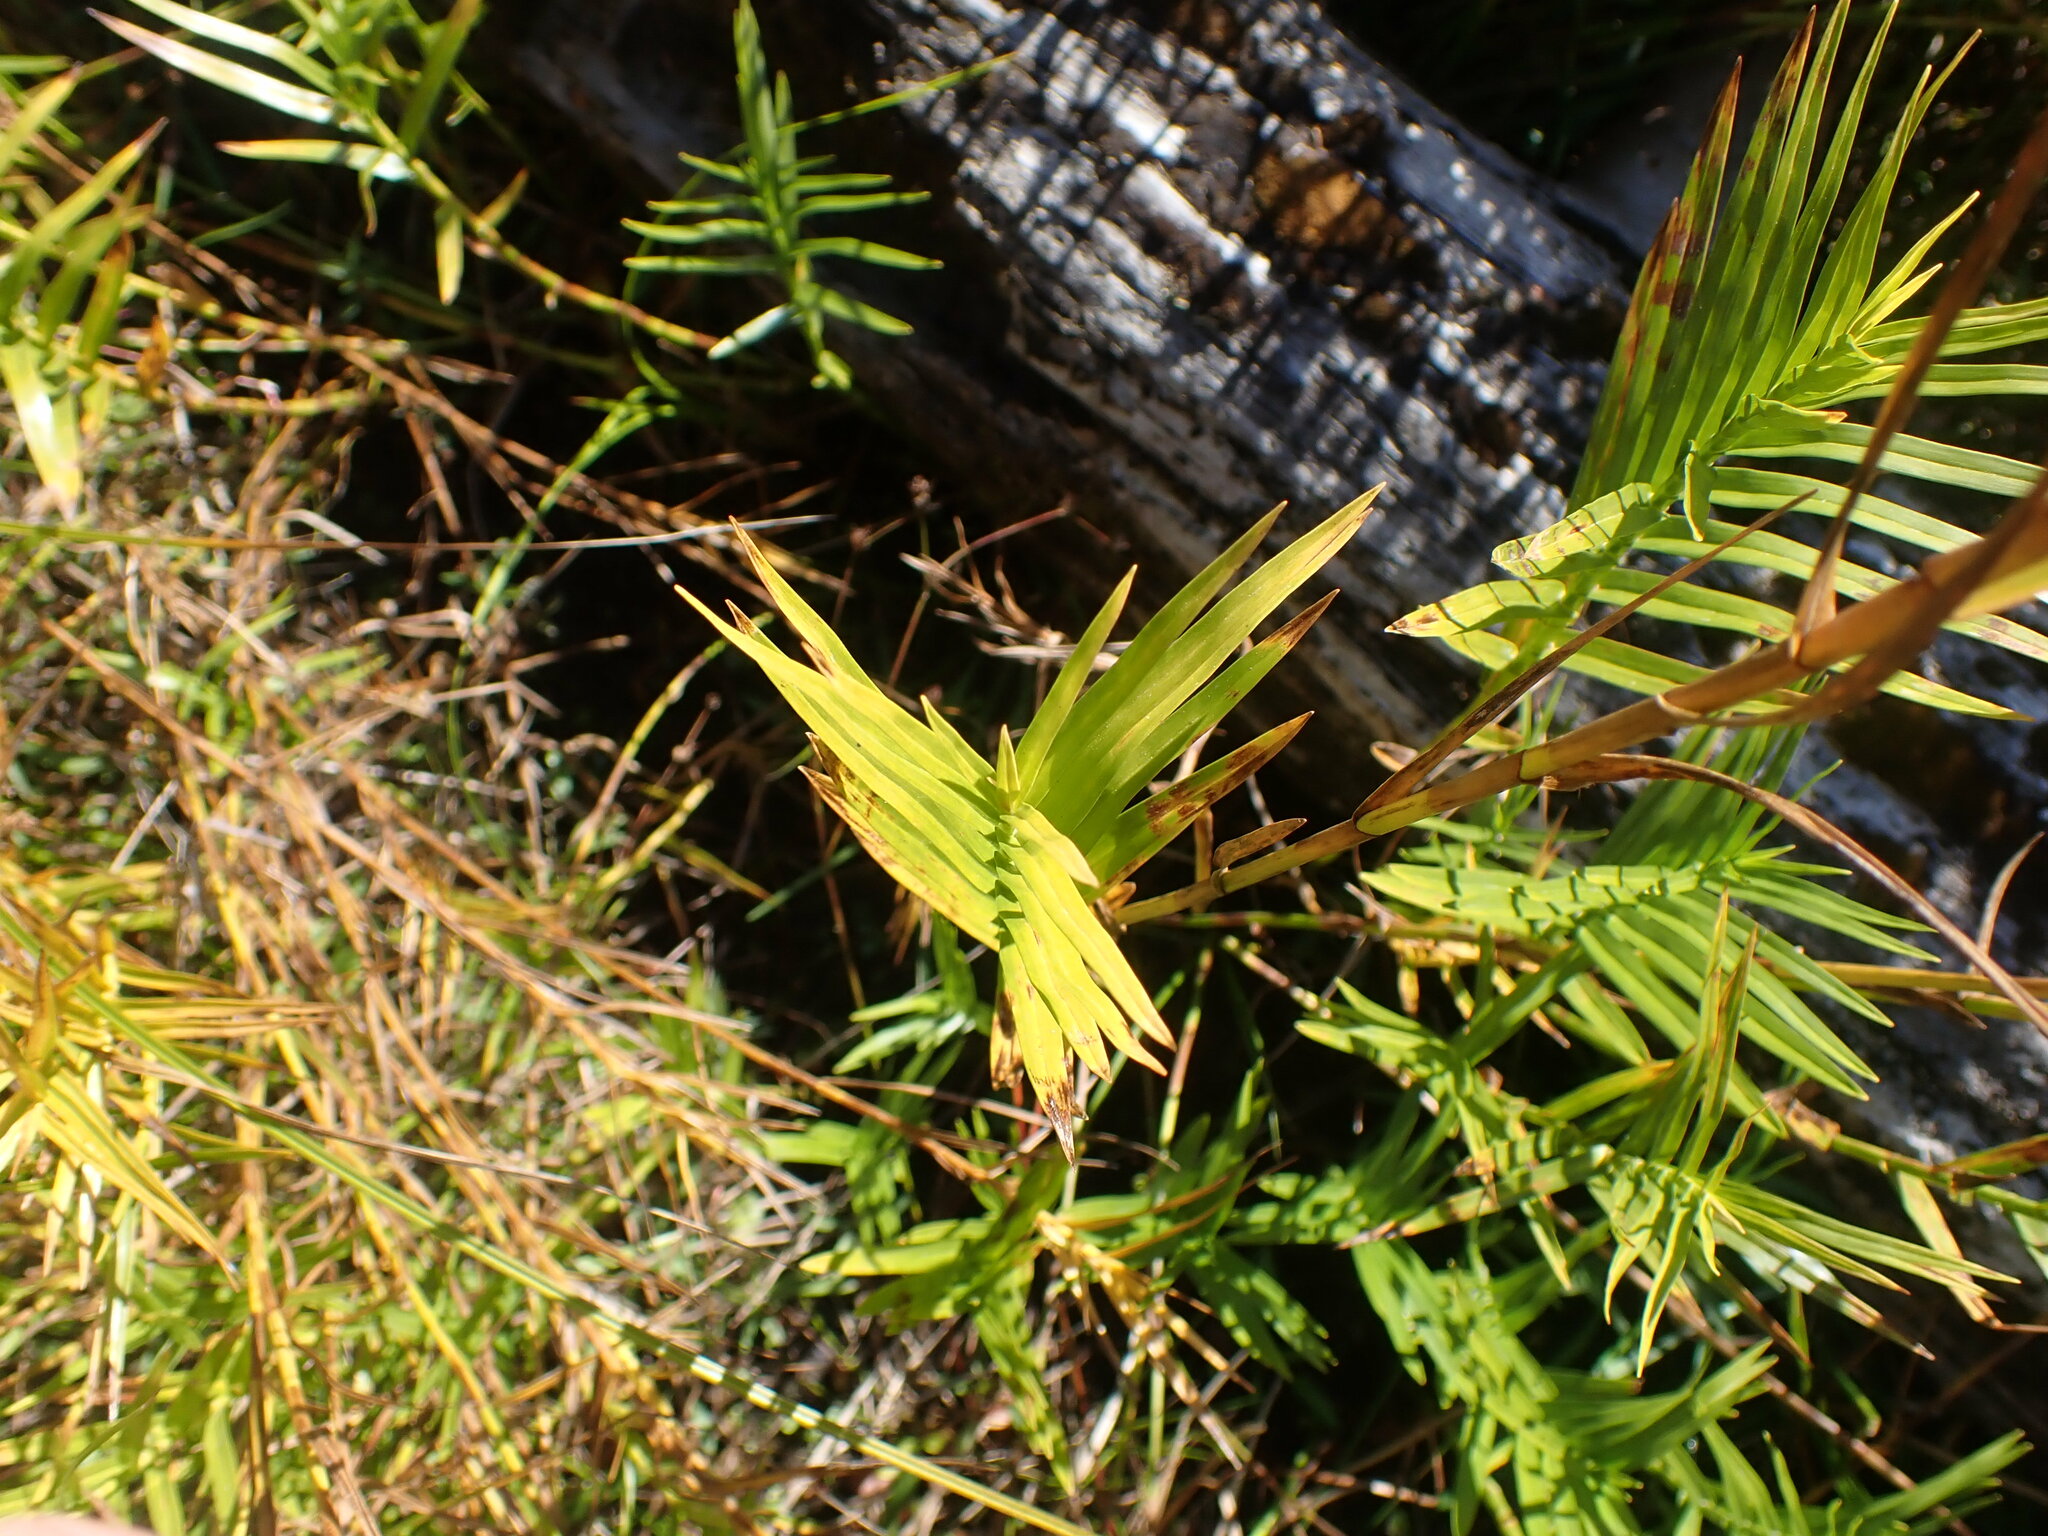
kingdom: Plantae
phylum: Tracheophyta
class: Liliopsida
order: Poales
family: Cyperaceae
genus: Dulichium
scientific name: Dulichium arundinaceum
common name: Three-way sedge
